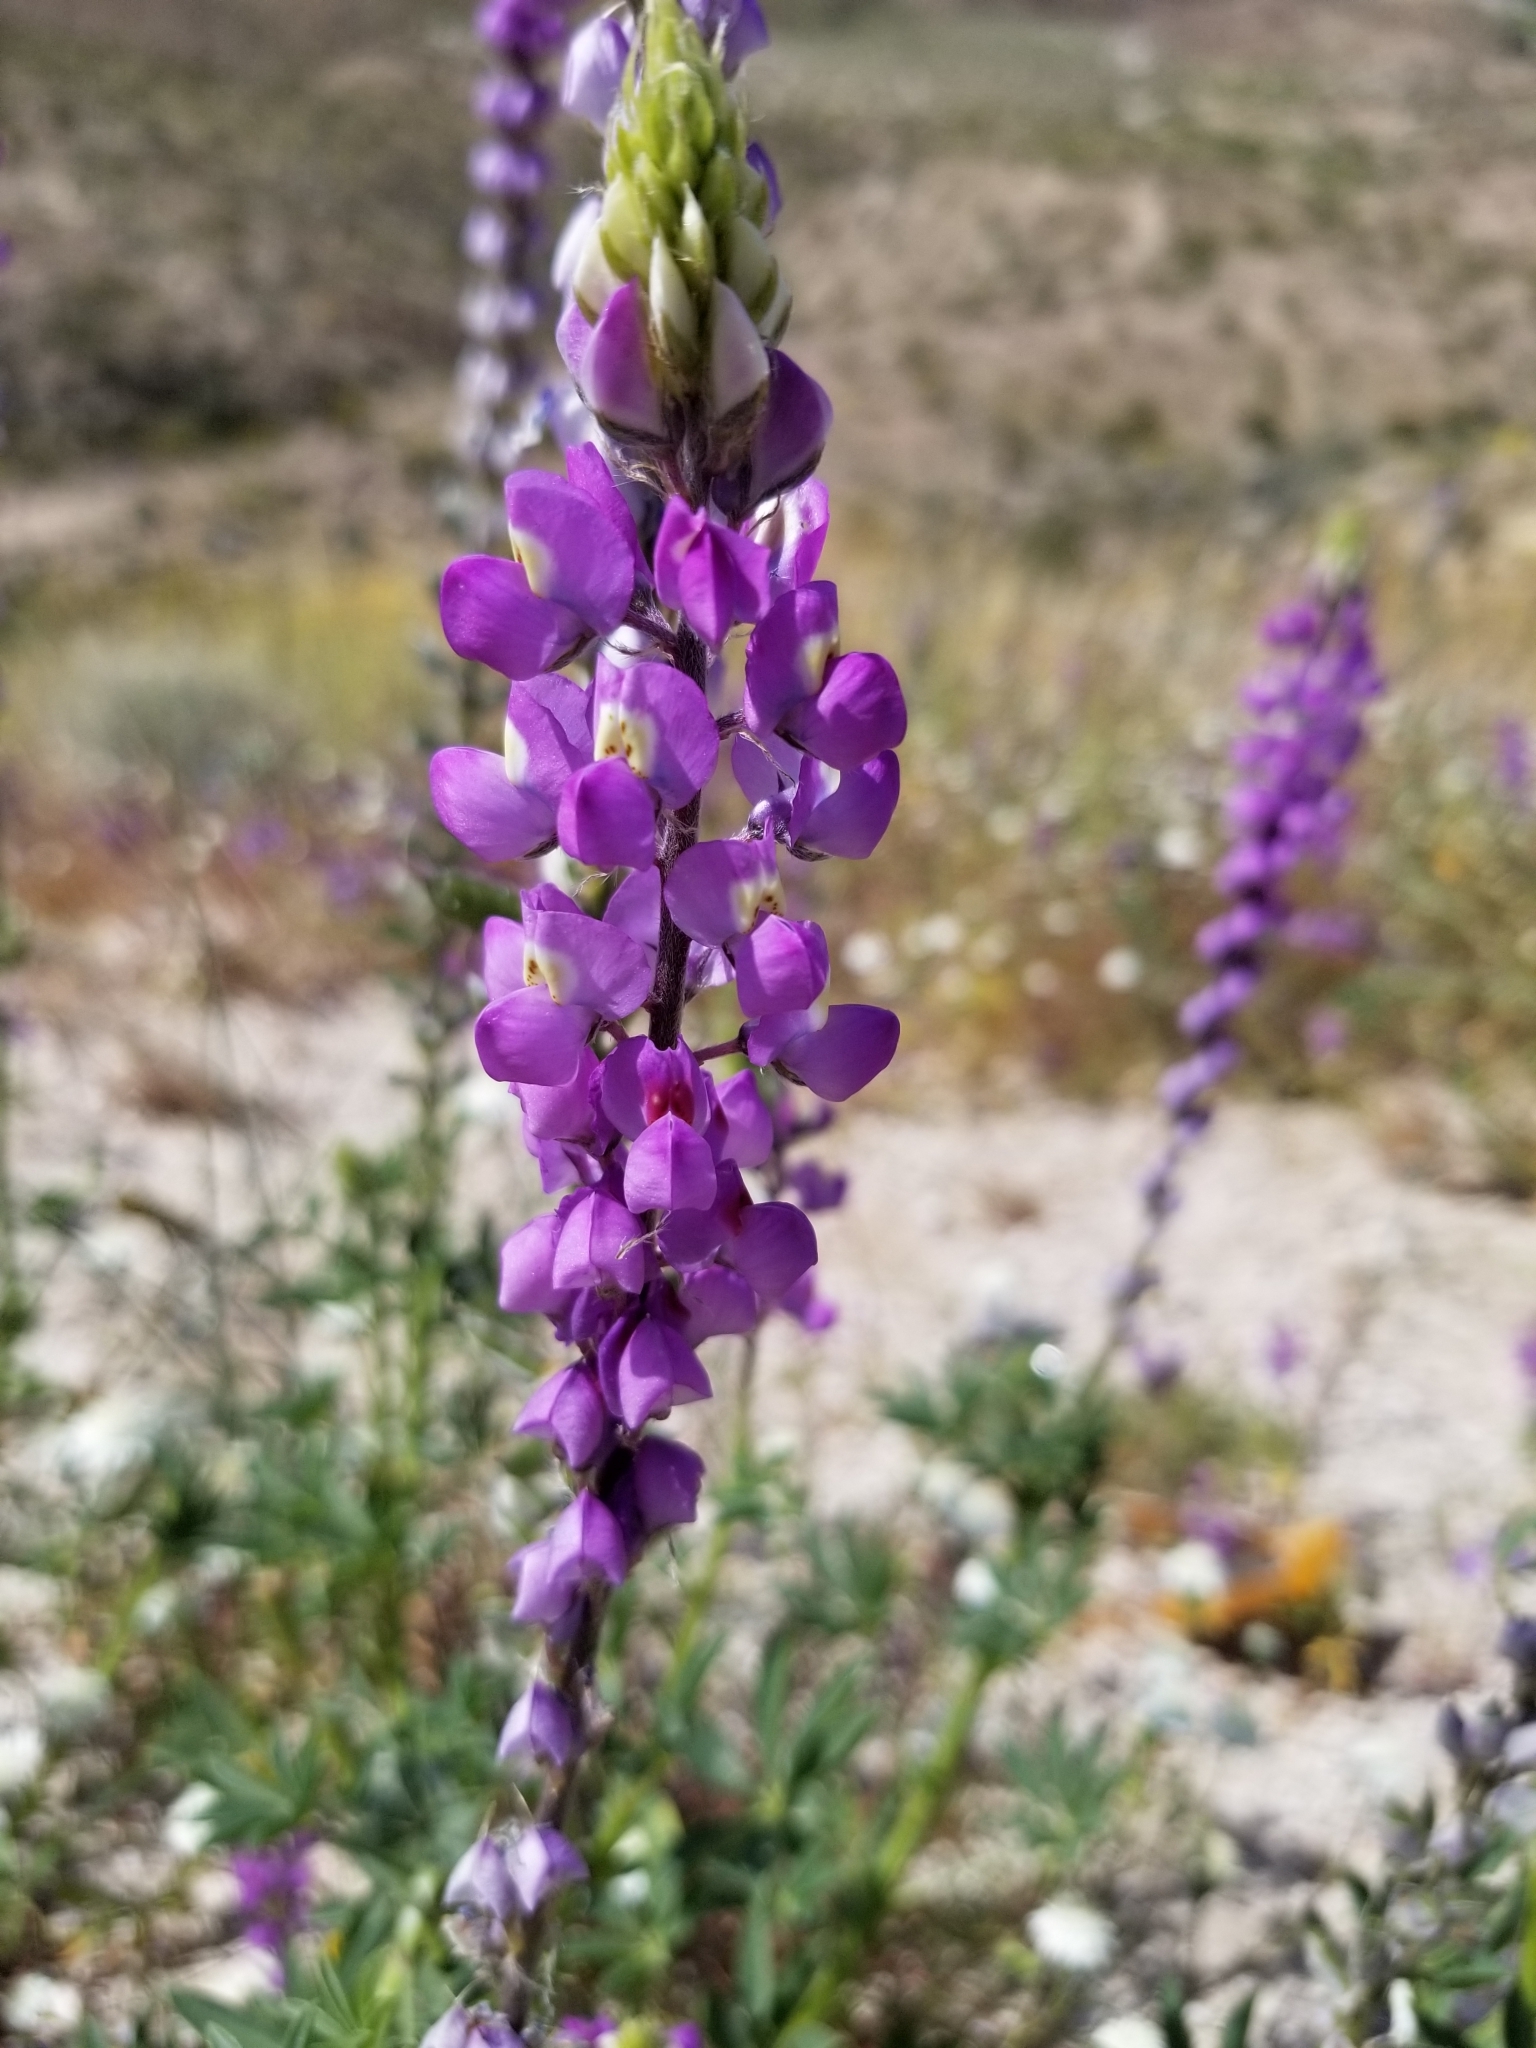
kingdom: Plantae
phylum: Tracheophyta
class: Magnoliopsida
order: Fabales
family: Fabaceae
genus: Lupinus
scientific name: Lupinus arizonicus
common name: Arizona lupine
